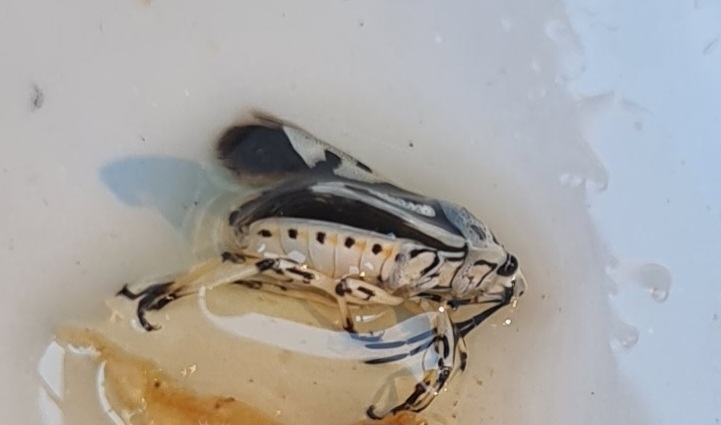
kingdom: Animalia
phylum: Arthropoda
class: Insecta
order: Hemiptera
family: Pentatomidae
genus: Eurydema
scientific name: Eurydema ornata
